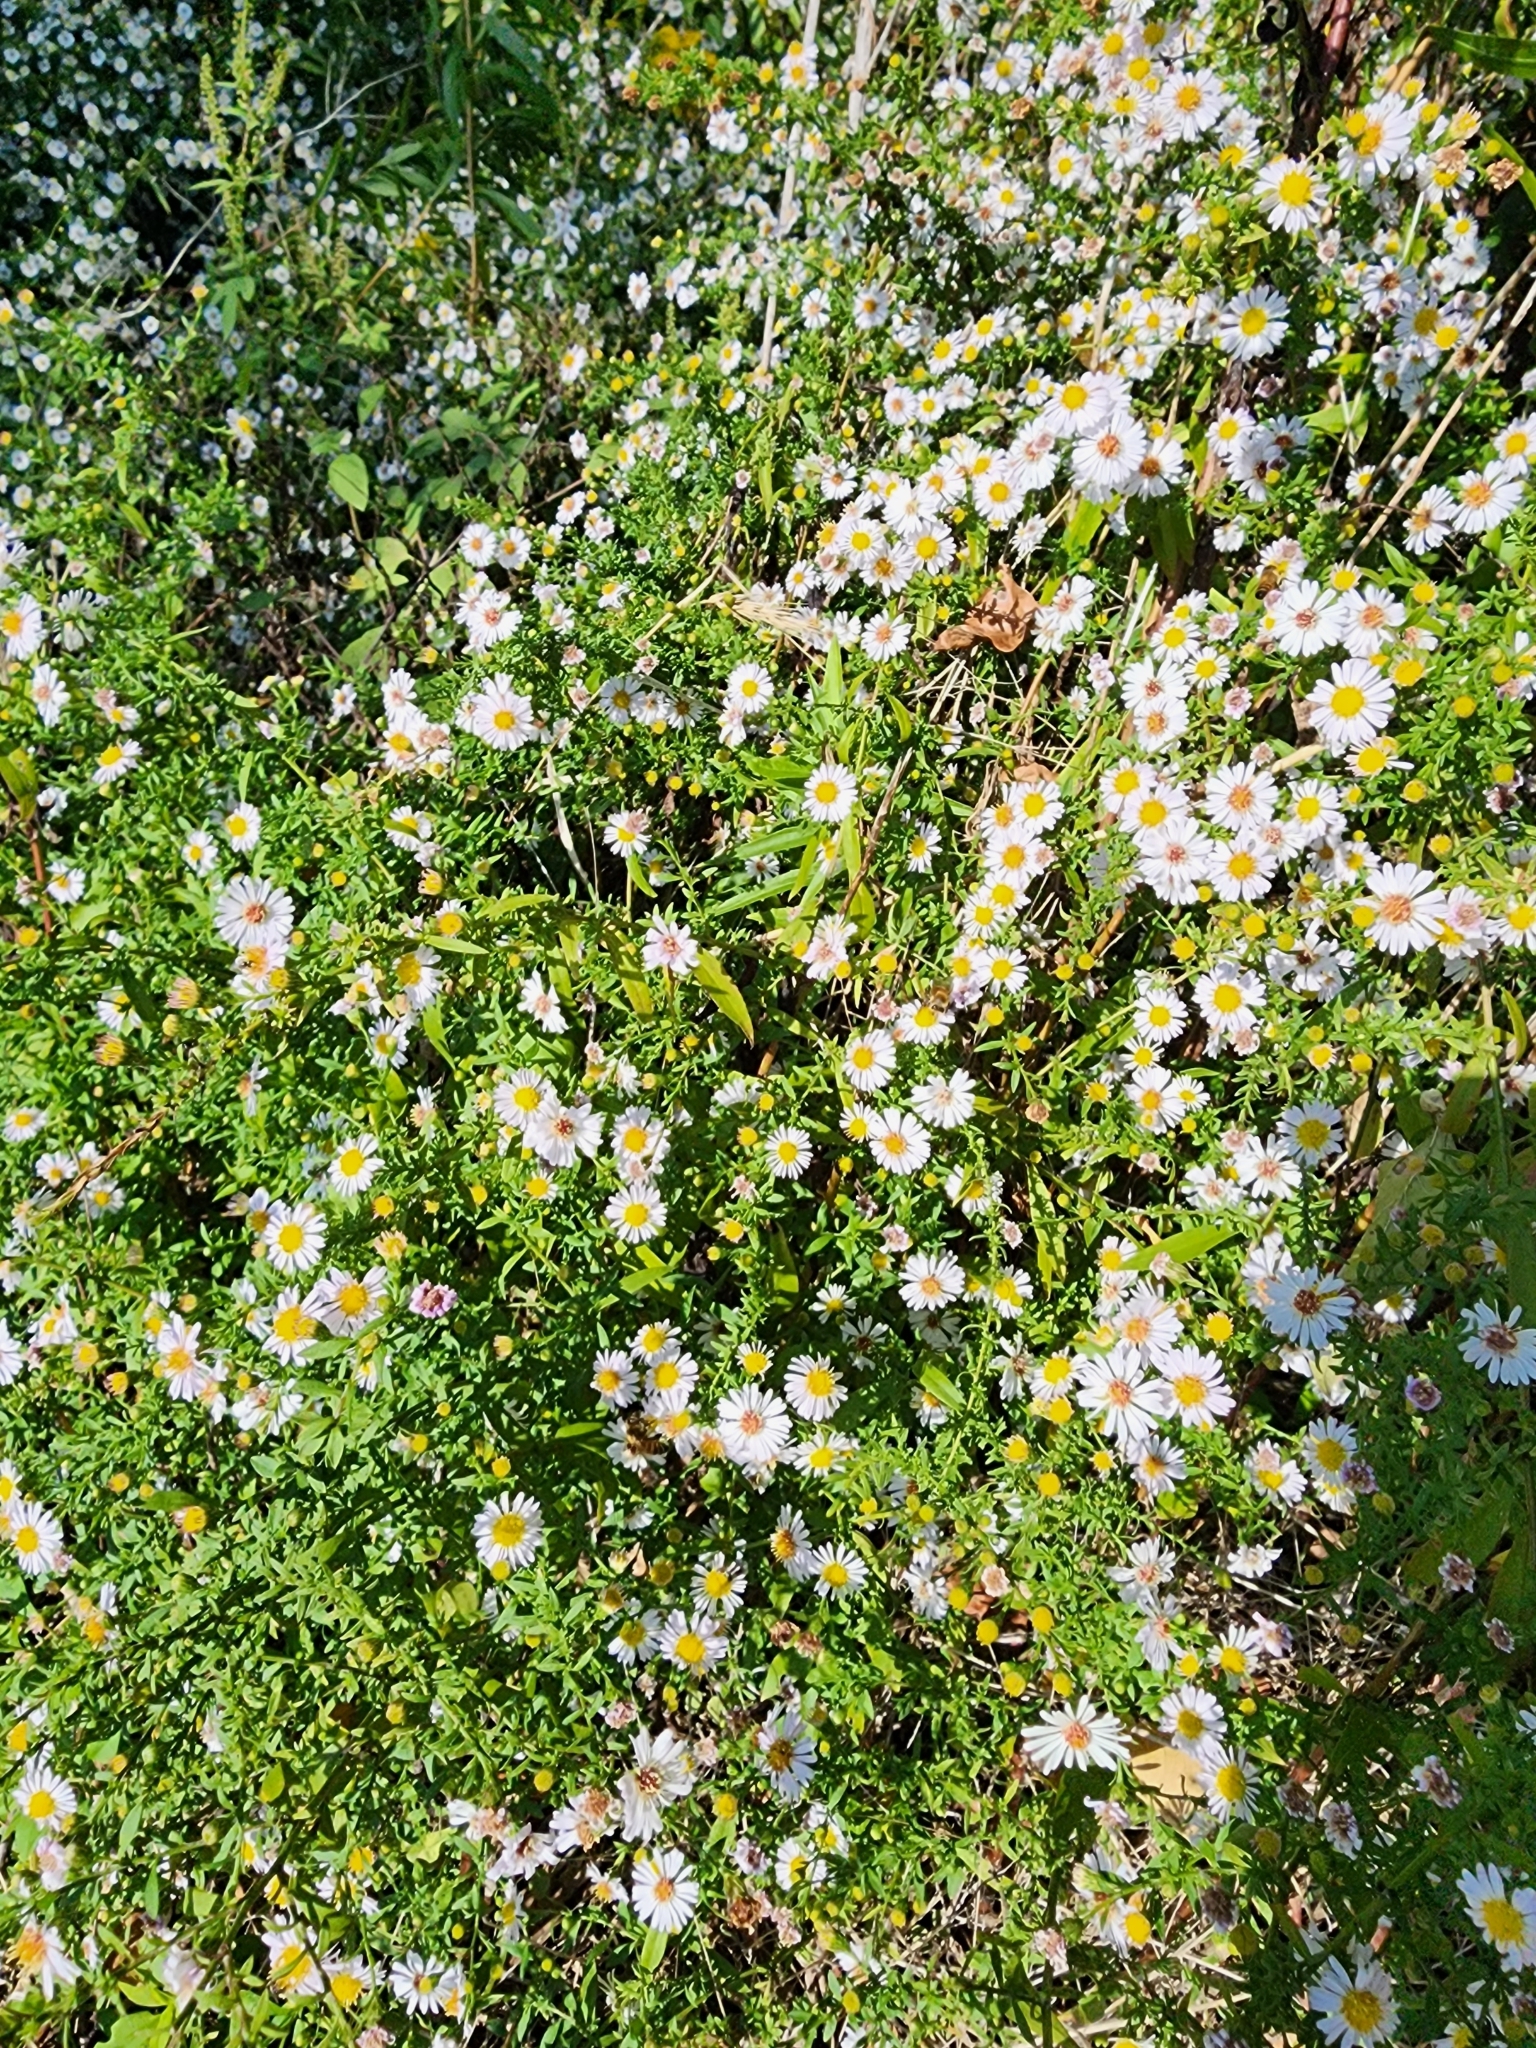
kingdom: Plantae
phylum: Tracheophyta
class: Magnoliopsida
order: Asterales
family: Asteraceae
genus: Symphyotrichum
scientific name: Symphyotrichum racemosum
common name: Small white aster
